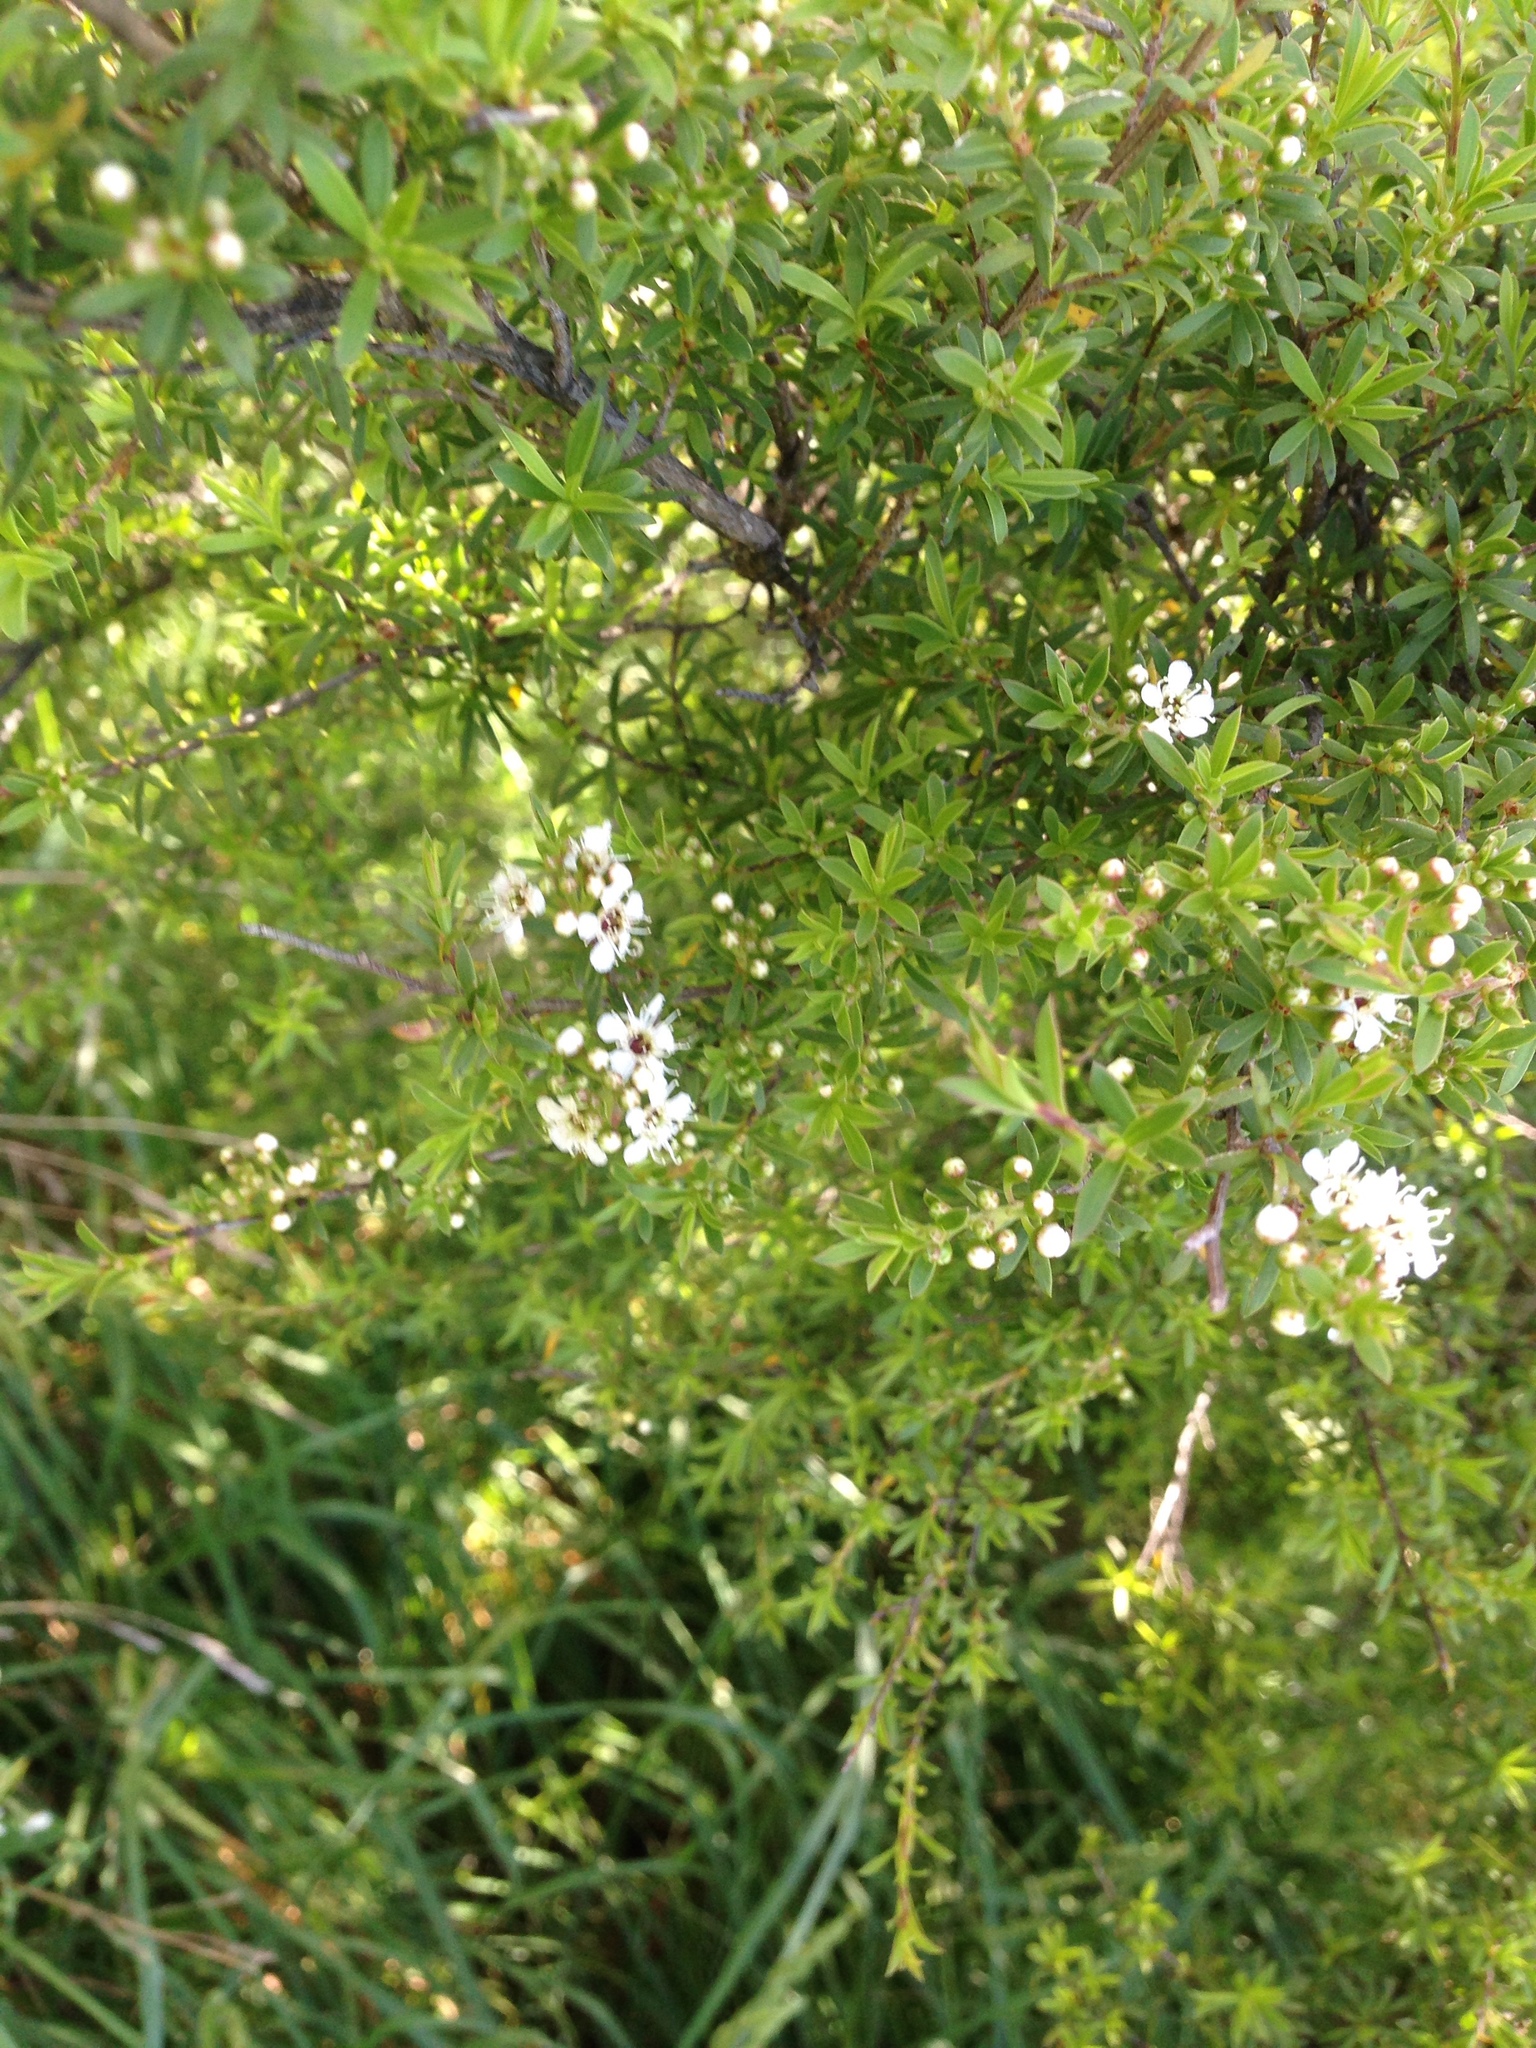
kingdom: Plantae
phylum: Tracheophyta
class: Magnoliopsida
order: Myrtales
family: Myrtaceae
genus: Kunzea
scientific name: Kunzea robusta
